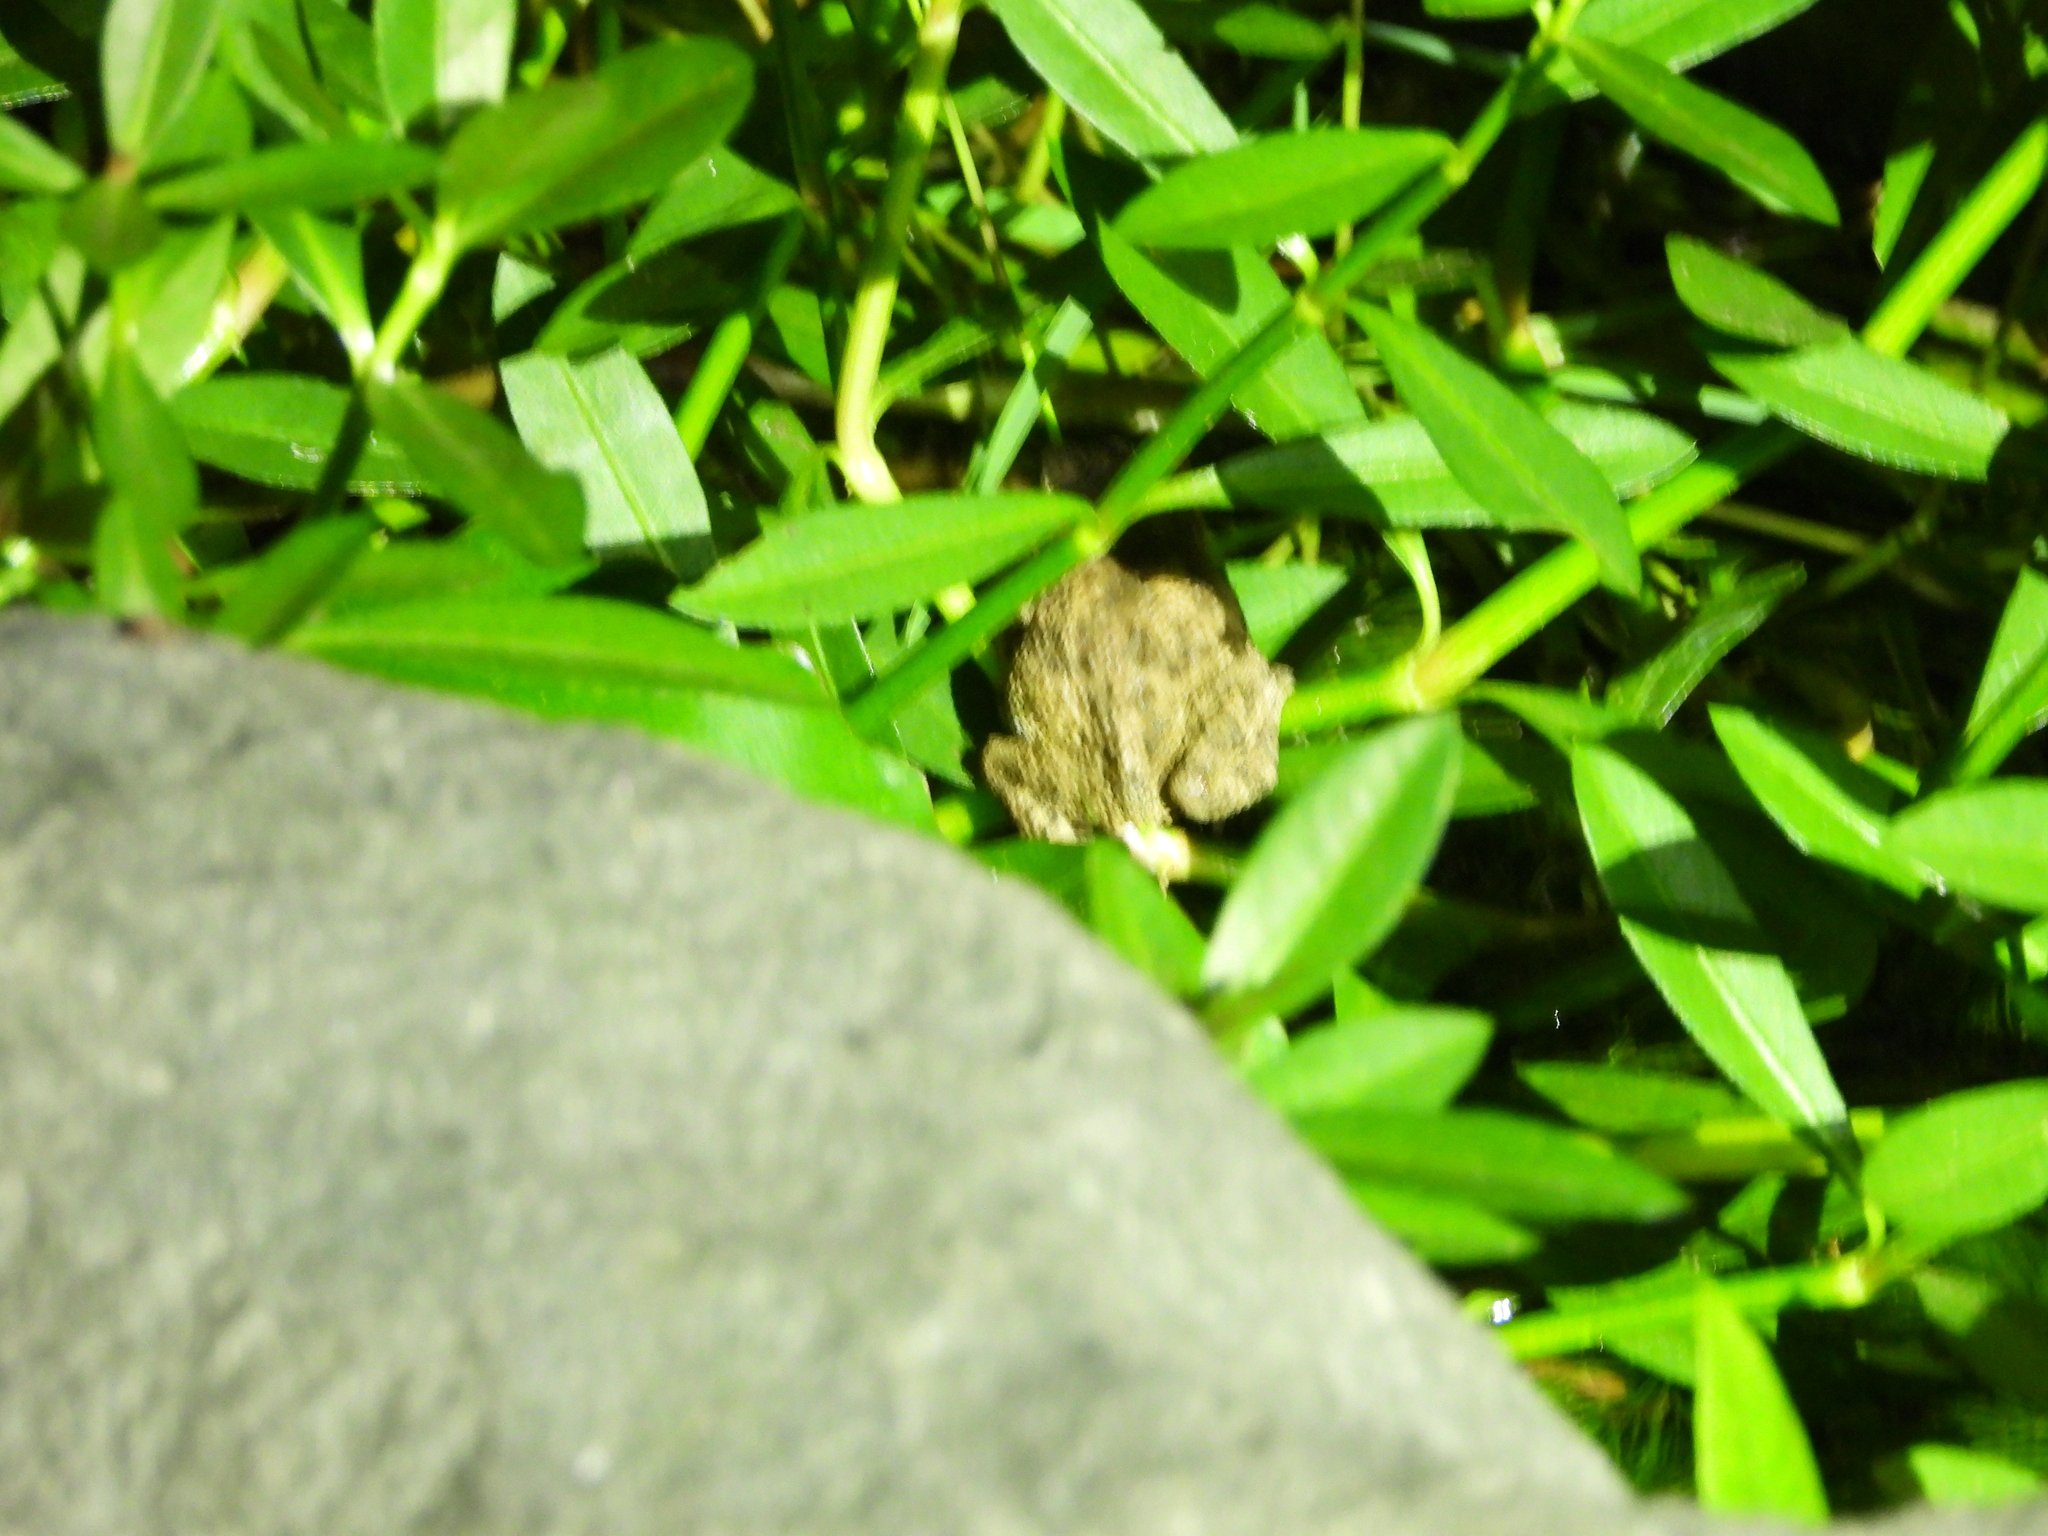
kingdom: Animalia
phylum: Chordata
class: Amphibia
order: Anura
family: Bufonidae
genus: Duttaphrynus
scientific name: Duttaphrynus melanostictus
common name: Common sunda toad
